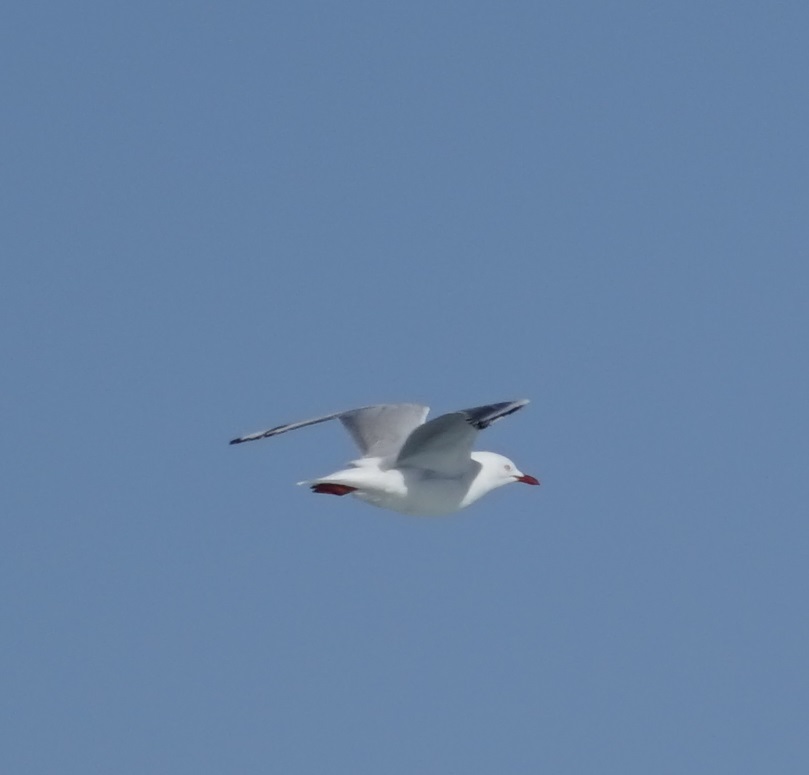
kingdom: Animalia
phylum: Chordata
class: Aves
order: Charadriiformes
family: Laridae
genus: Chroicocephalus
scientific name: Chroicocephalus novaehollandiae
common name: Silver gull
